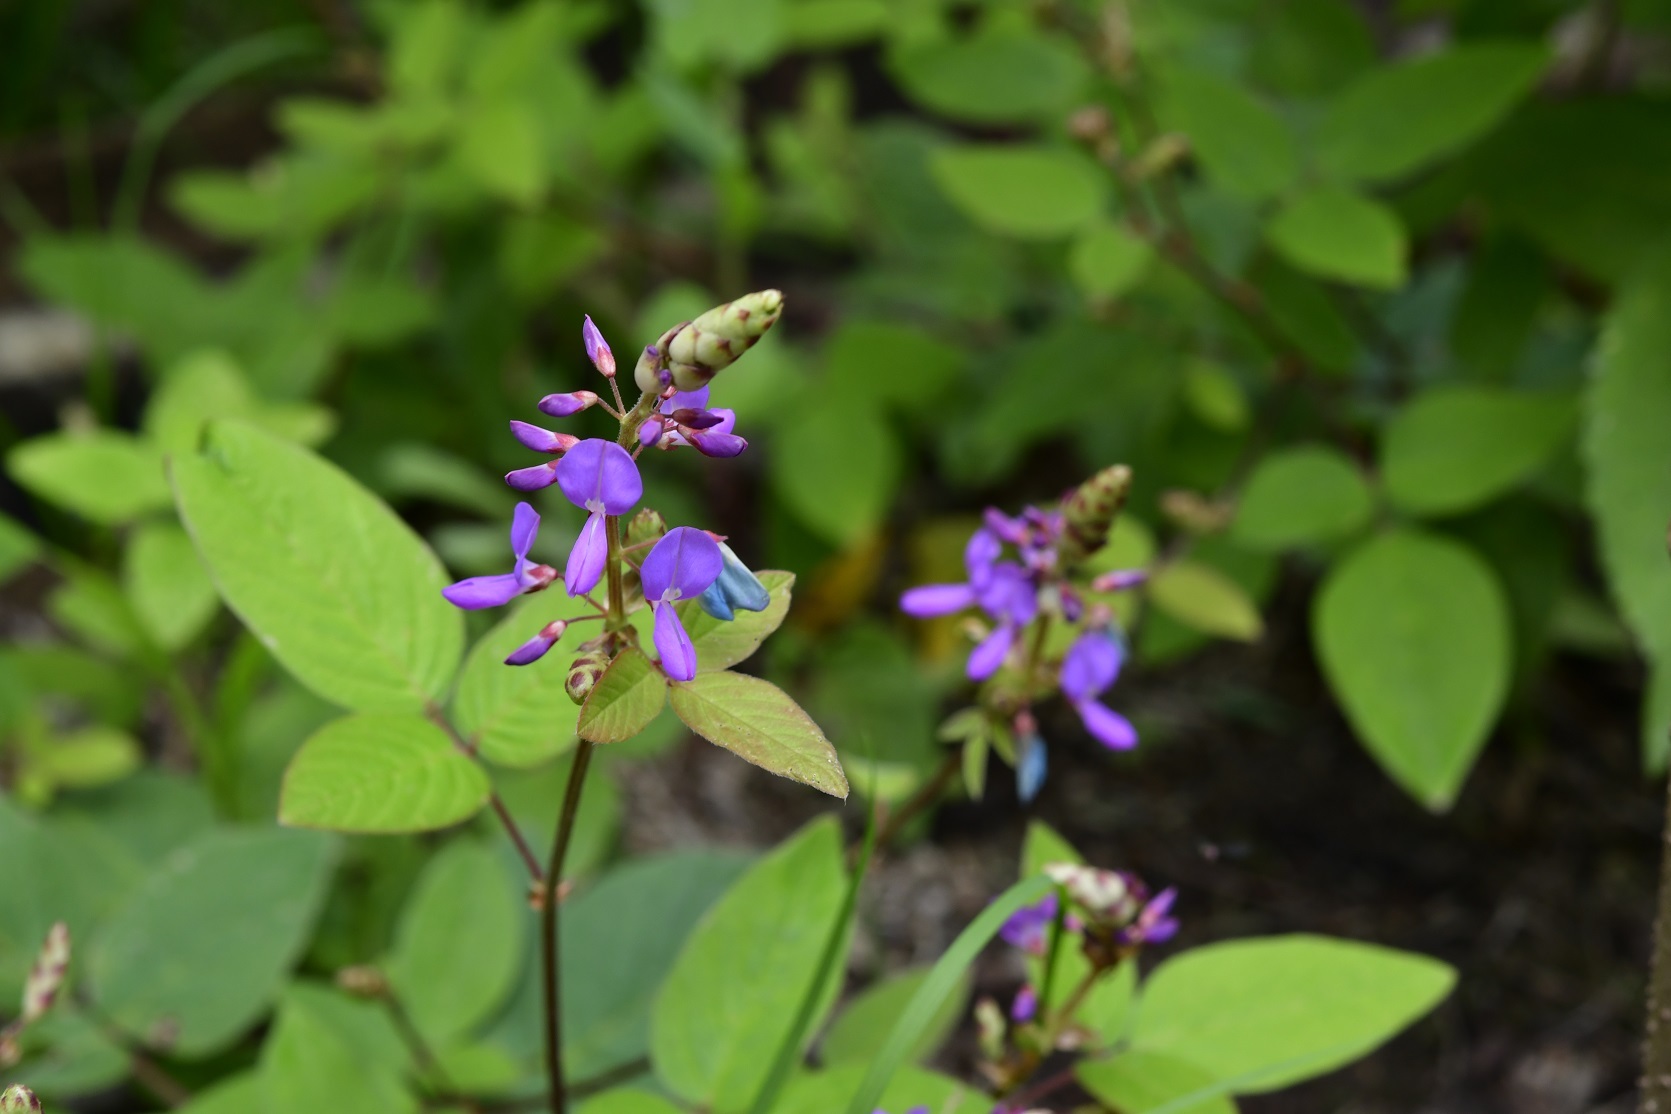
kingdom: Plantae
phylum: Tracheophyta
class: Magnoliopsida
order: Fabales
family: Fabaceae
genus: Desmodium
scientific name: Desmodium pringlei
